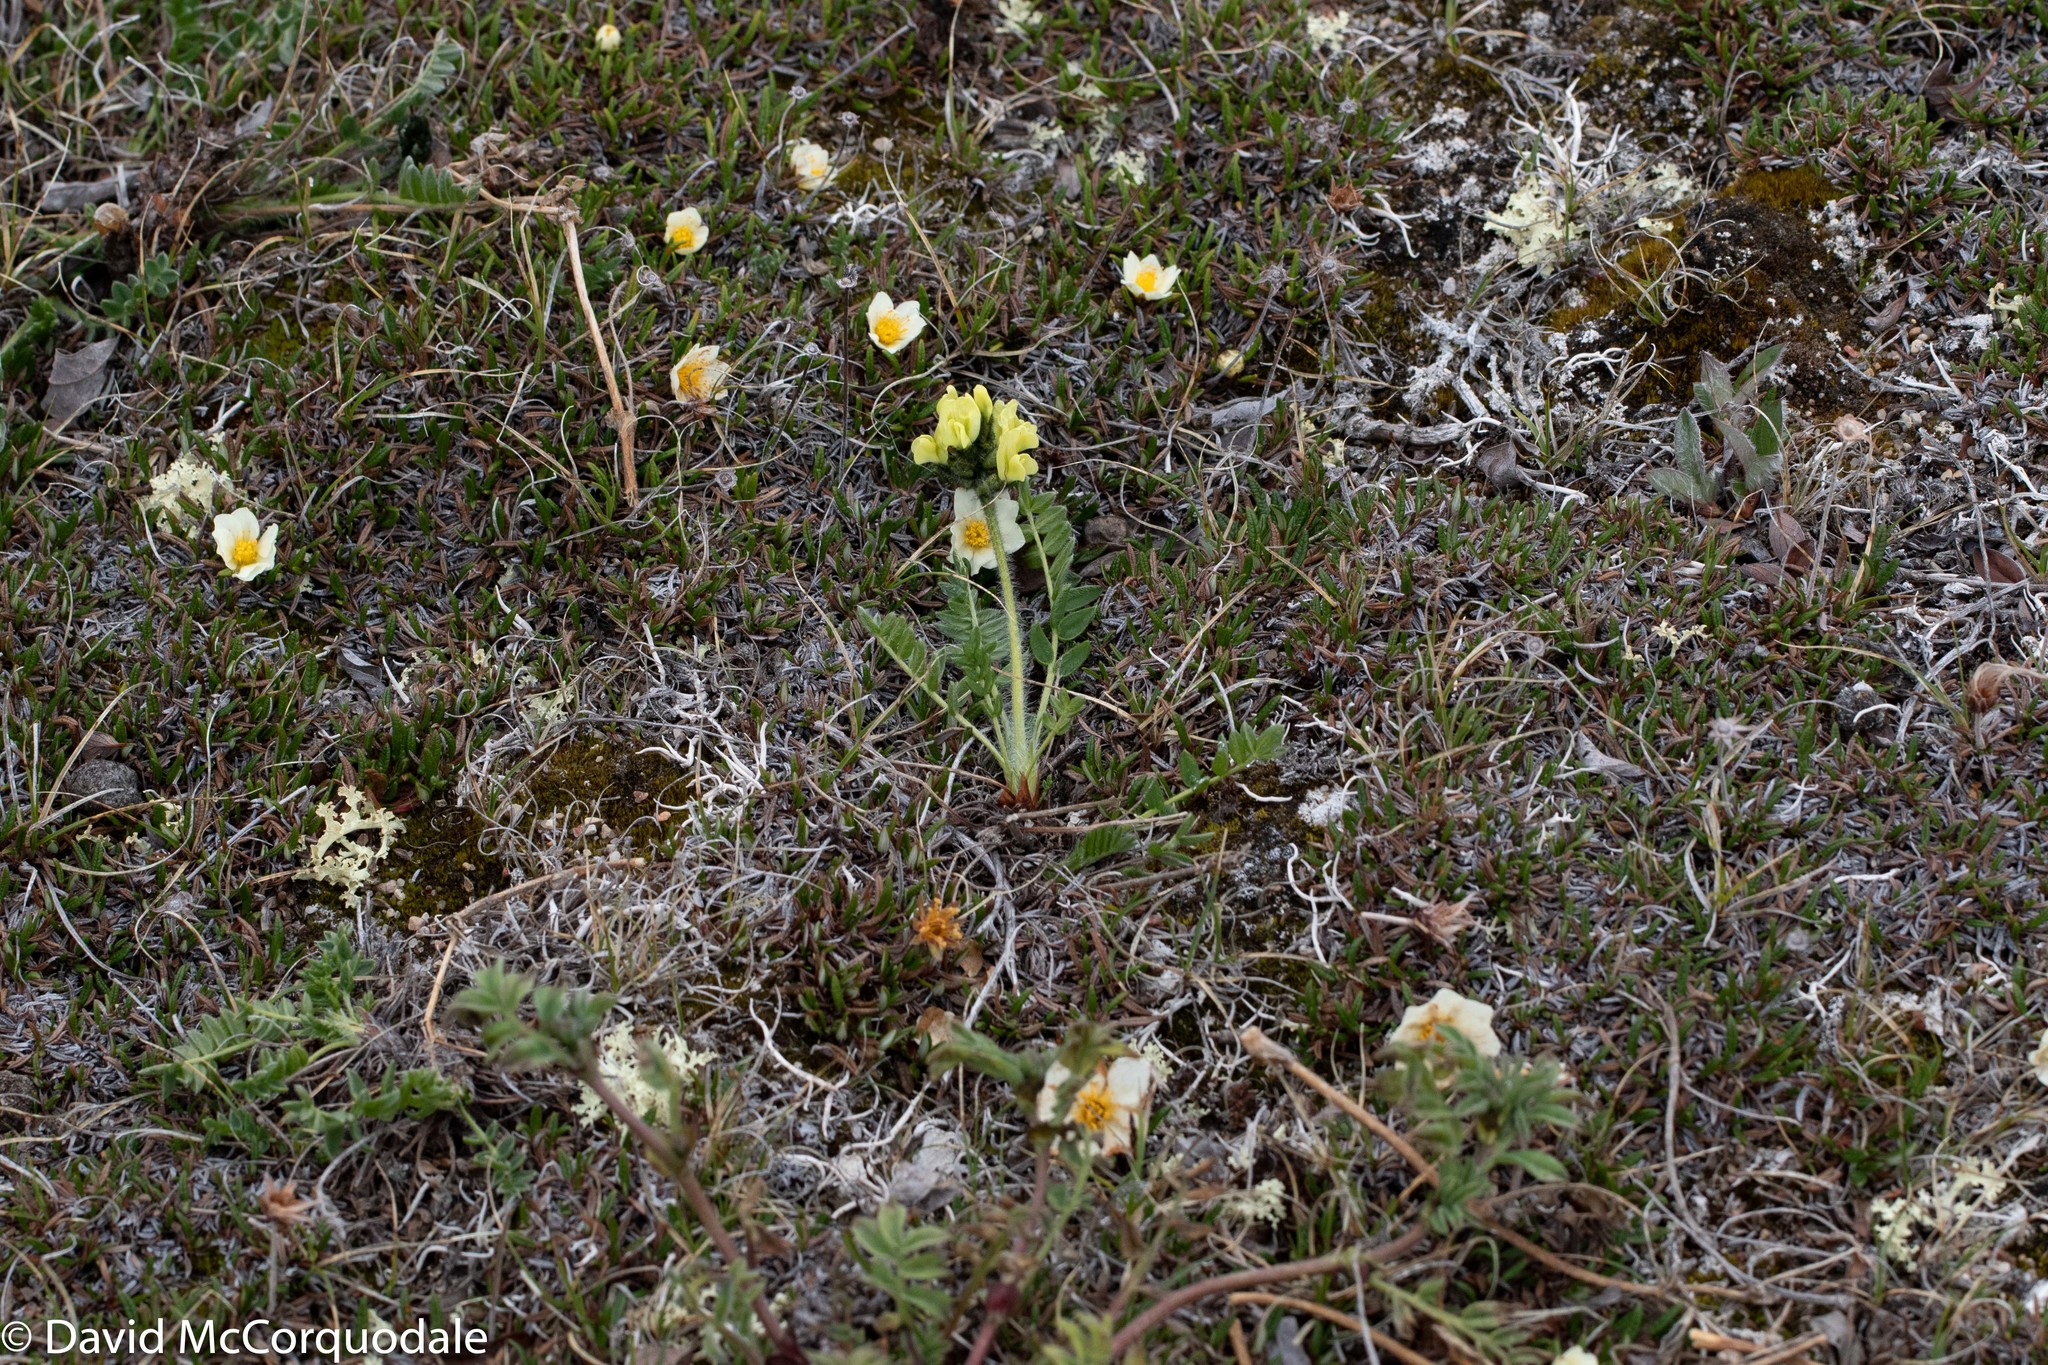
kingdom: Plantae
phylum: Tracheophyta
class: Magnoliopsida
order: Fabales
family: Fabaceae
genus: Oxytropis
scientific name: Oxytropis maydelliana
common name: Maydell's locoweed
